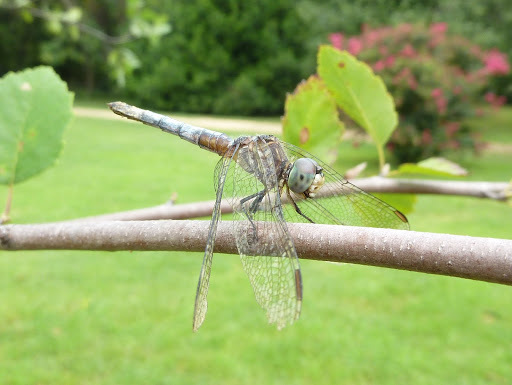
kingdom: Animalia
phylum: Arthropoda
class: Insecta
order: Odonata
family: Libellulidae
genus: Pachydiplax
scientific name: Pachydiplax longipennis
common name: Blue dasher
